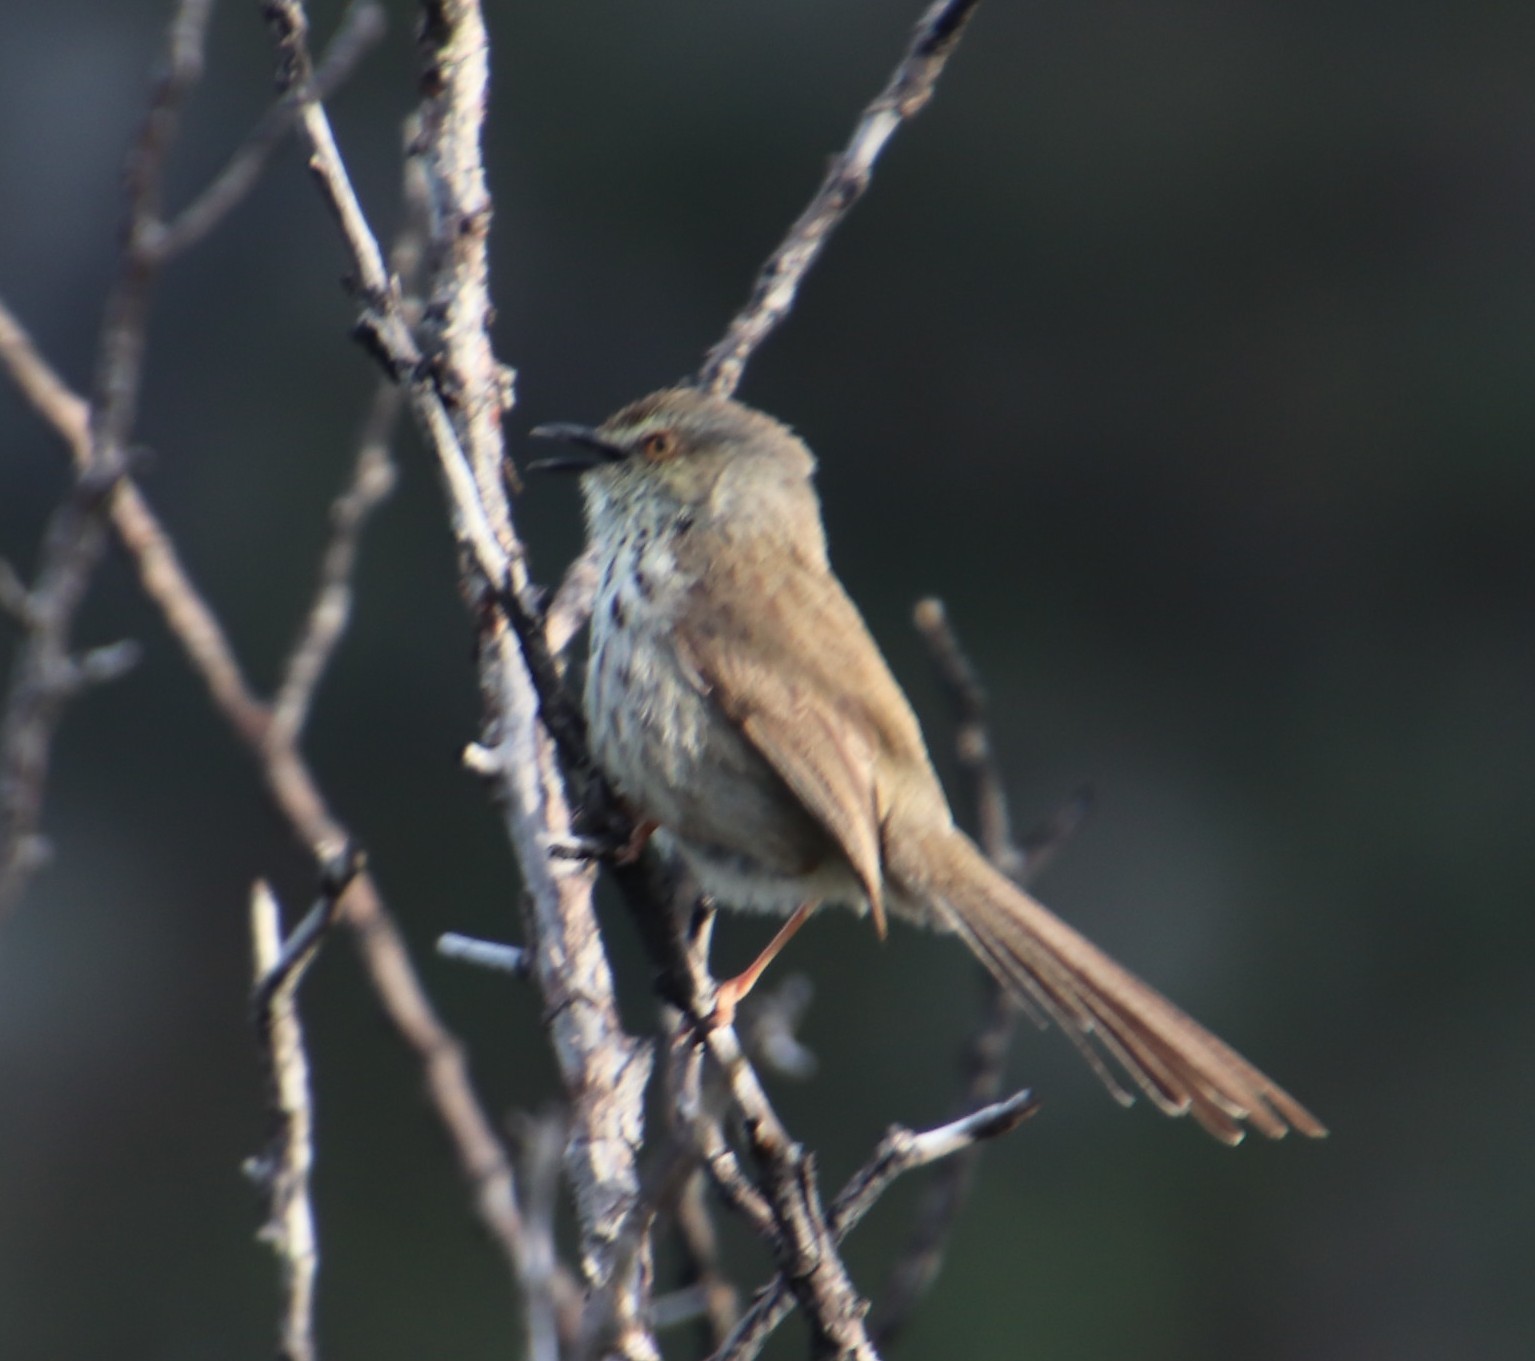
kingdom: Animalia
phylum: Chordata
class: Aves
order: Passeriformes
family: Cisticolidae
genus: Prinia
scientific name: Prinia maculosa
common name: Karoo prinia
